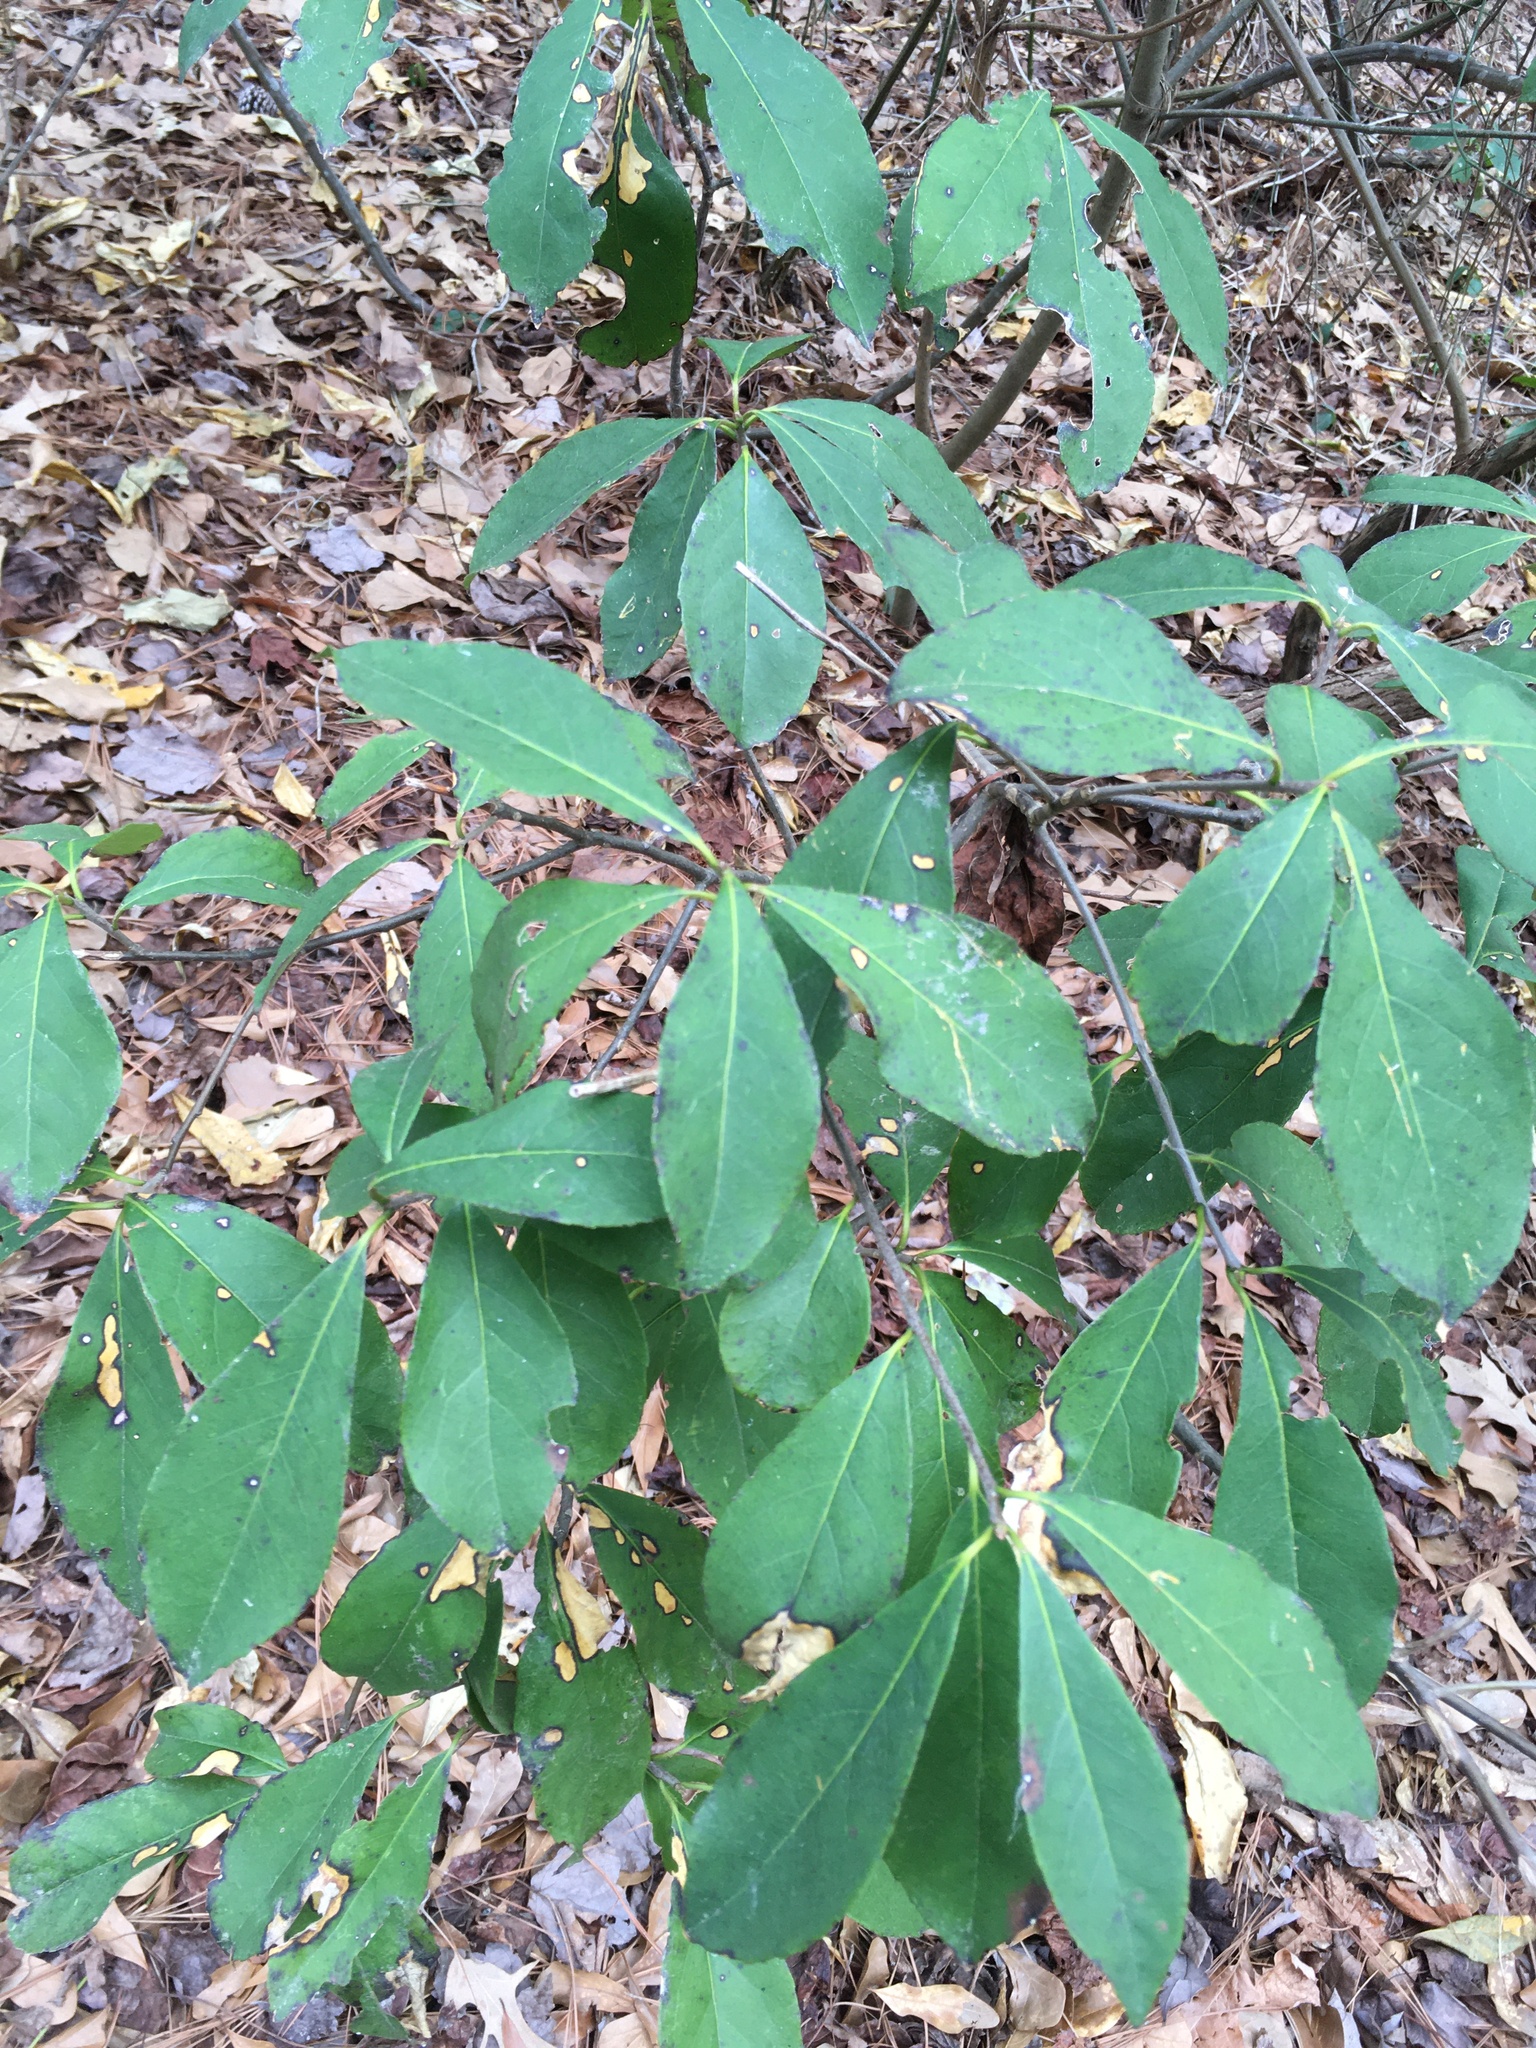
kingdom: Plantae
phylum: Tracheophyta
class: Magnoliopsida
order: Ericales
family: Symplocaceae
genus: Symplocos
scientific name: Symplocos tinctoria
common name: Horse-sugar
